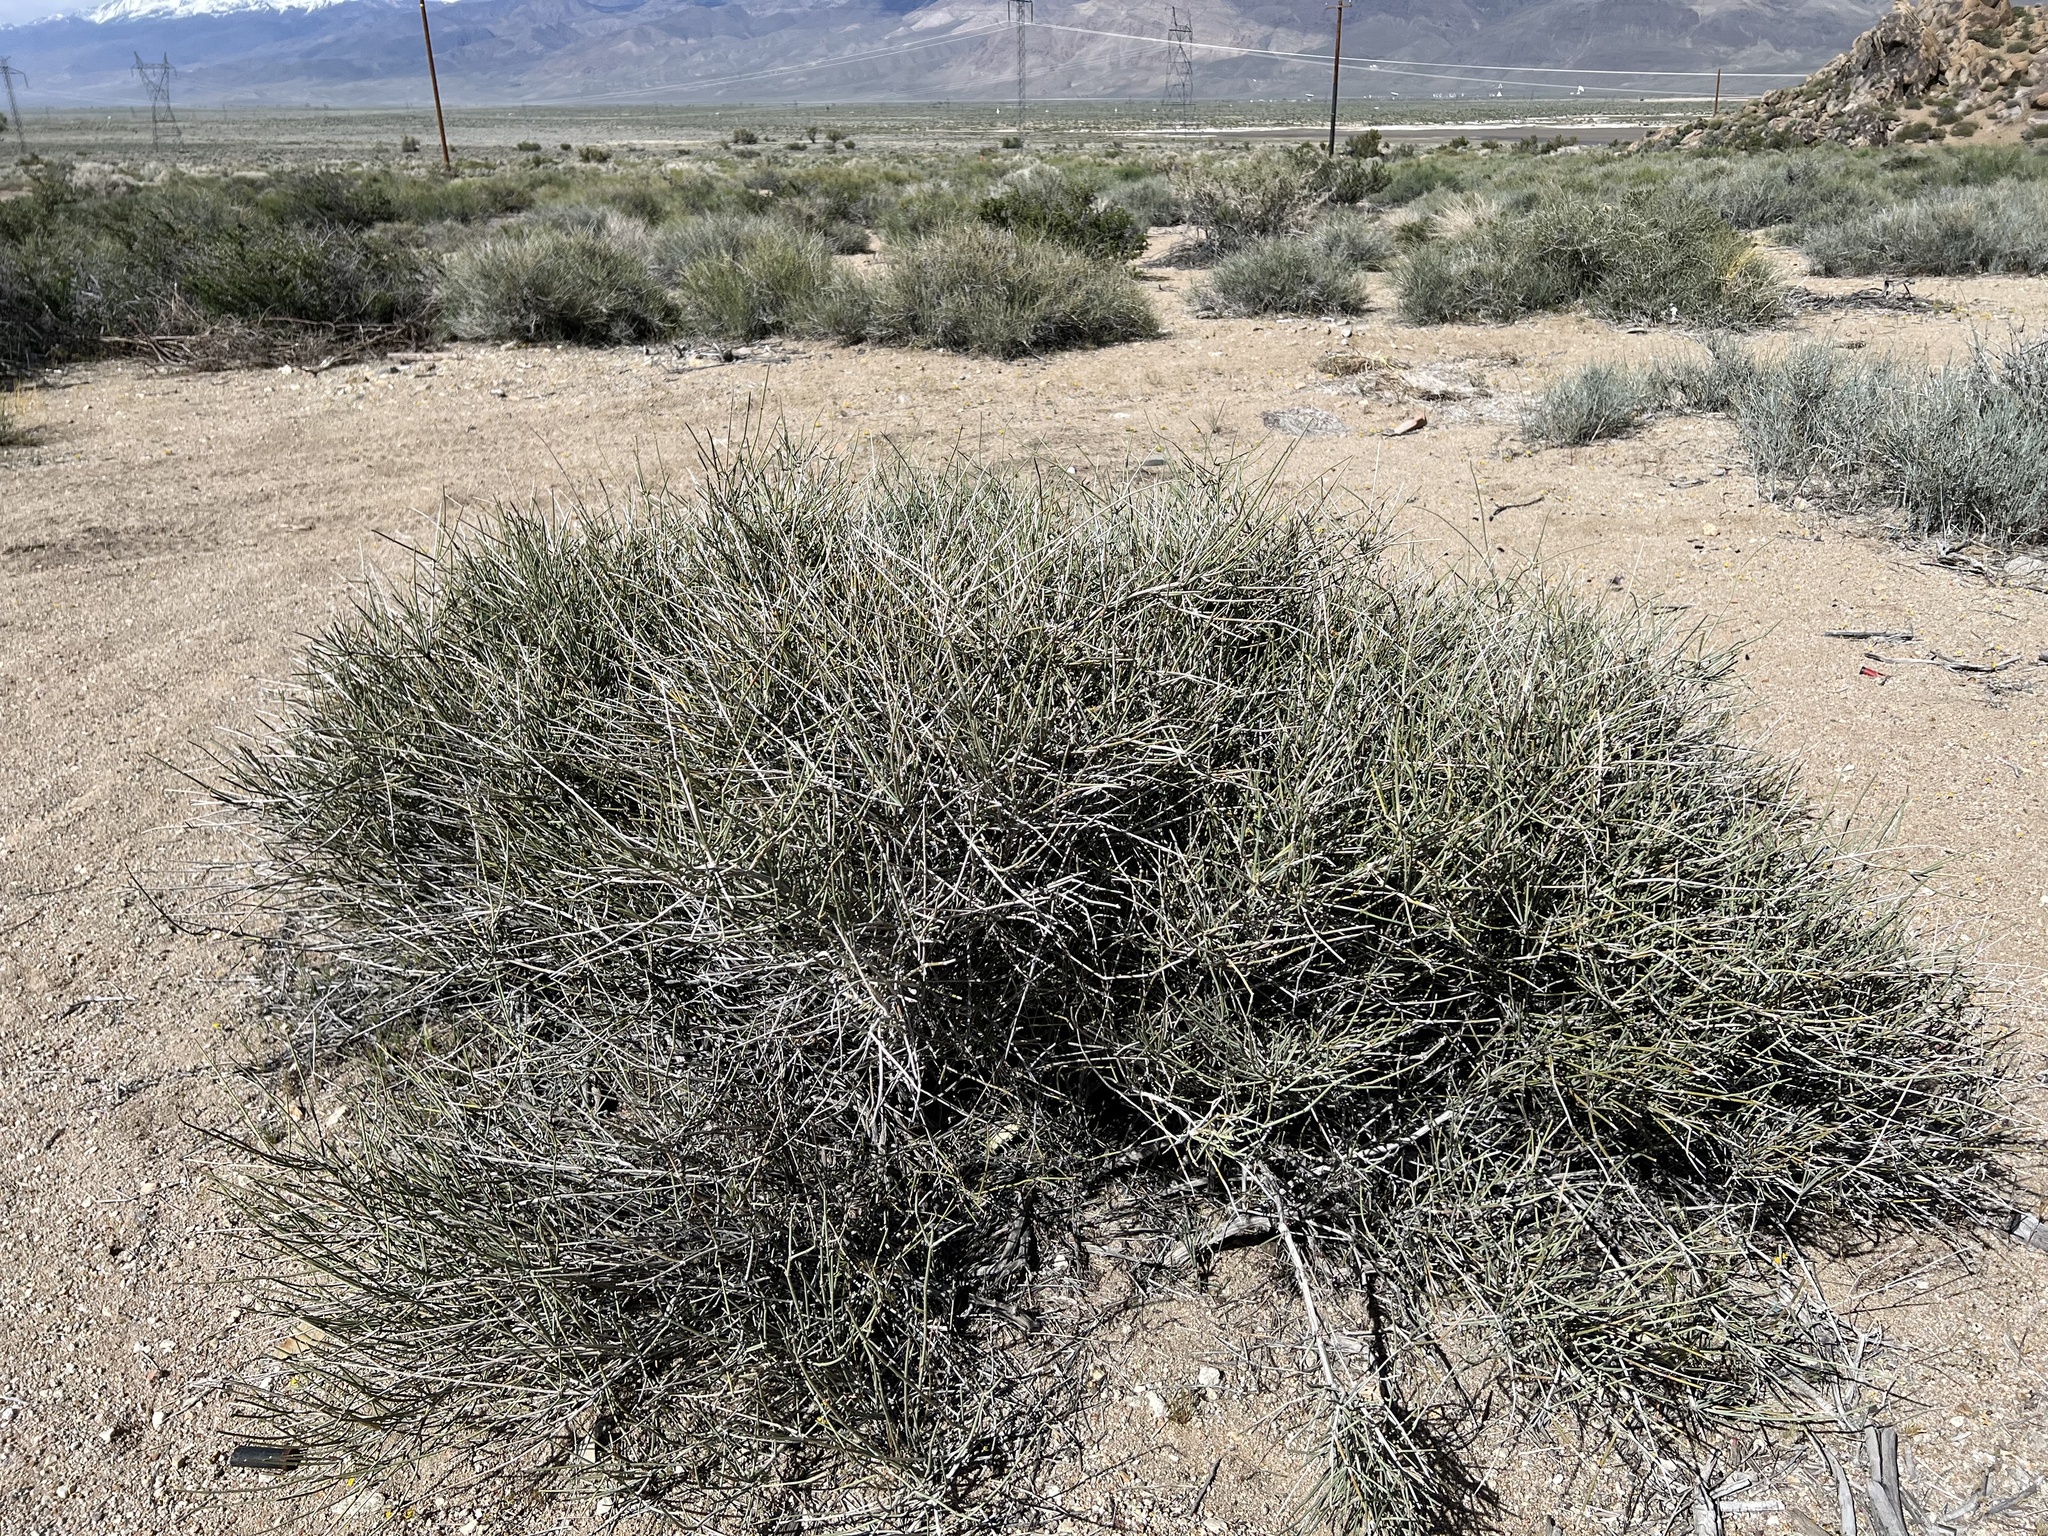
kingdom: Plantae
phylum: Tracheophyta
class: Gnetopsida
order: Ephedrales
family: Ephedraceae
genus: Ephedra
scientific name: Ephedra nevadensis
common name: Gray ephedra
